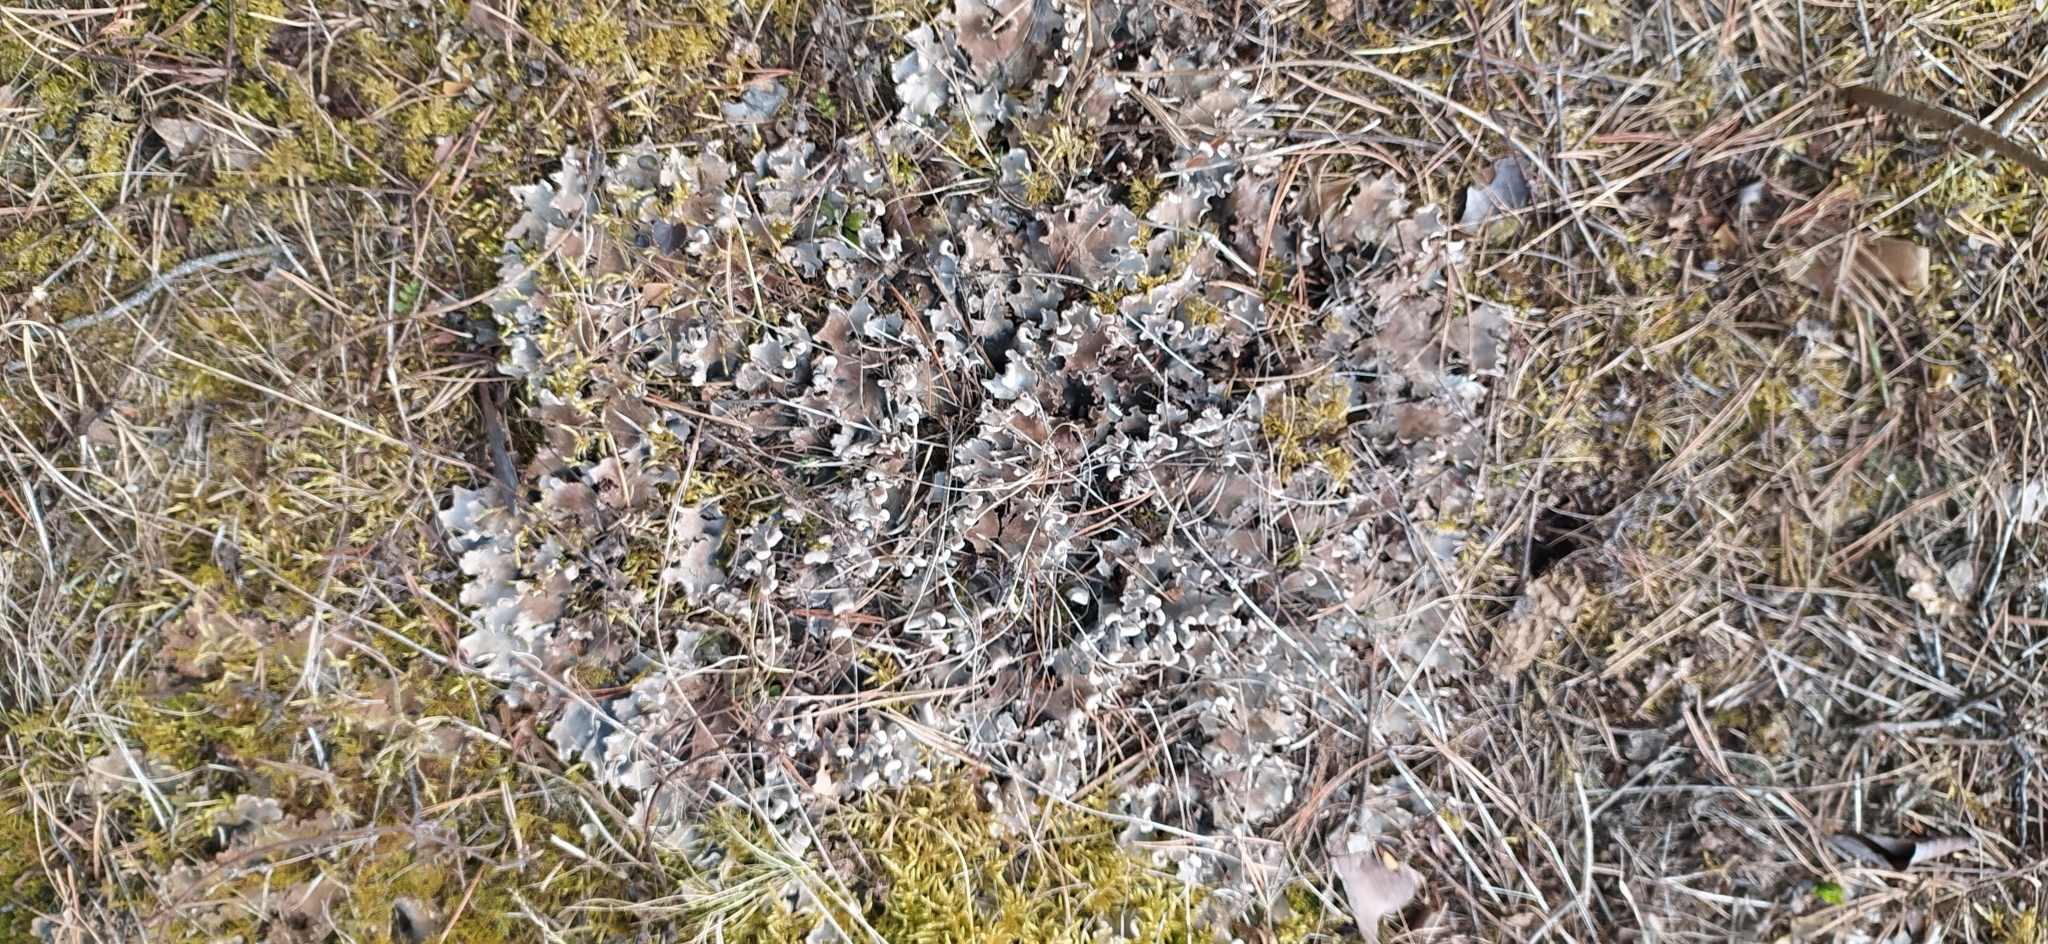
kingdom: Fungi
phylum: Ascomycota
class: Lecanoromycetes
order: Peltigerales
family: Peltigeraceae
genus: Peltigera
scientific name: Peltigera rufescens
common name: Field dog lichen
